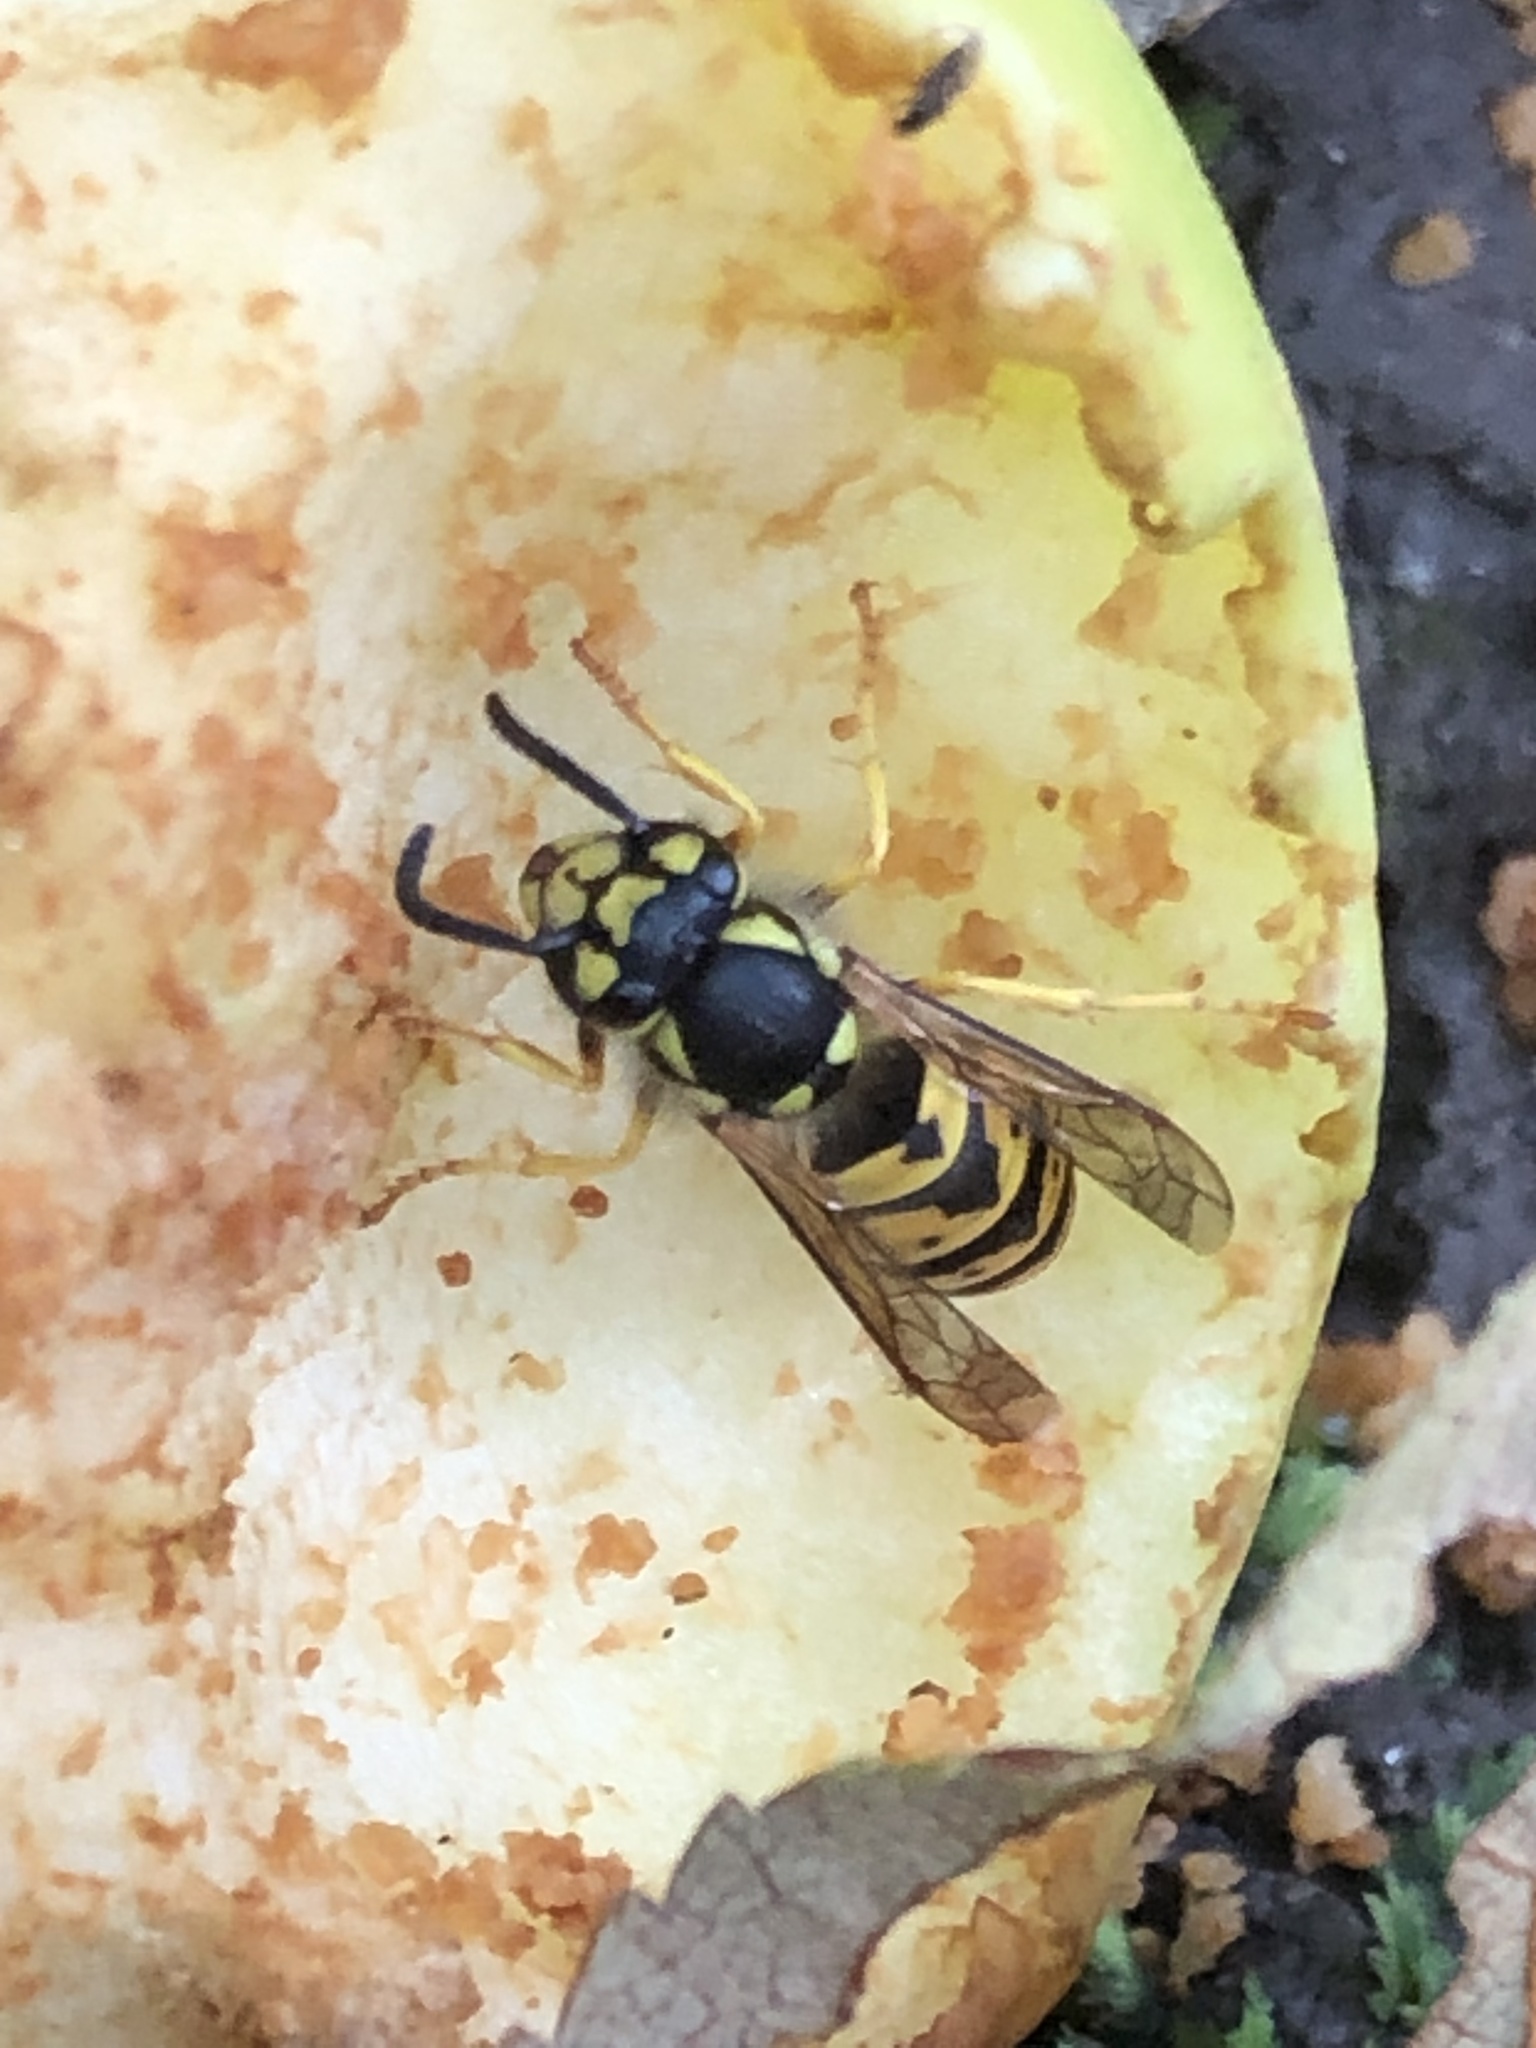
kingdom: Animalia
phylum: Arthropoda
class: Insecta
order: Hymenoptera
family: Vespidae
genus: Vespula
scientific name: Vespula germanica
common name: German wasp
